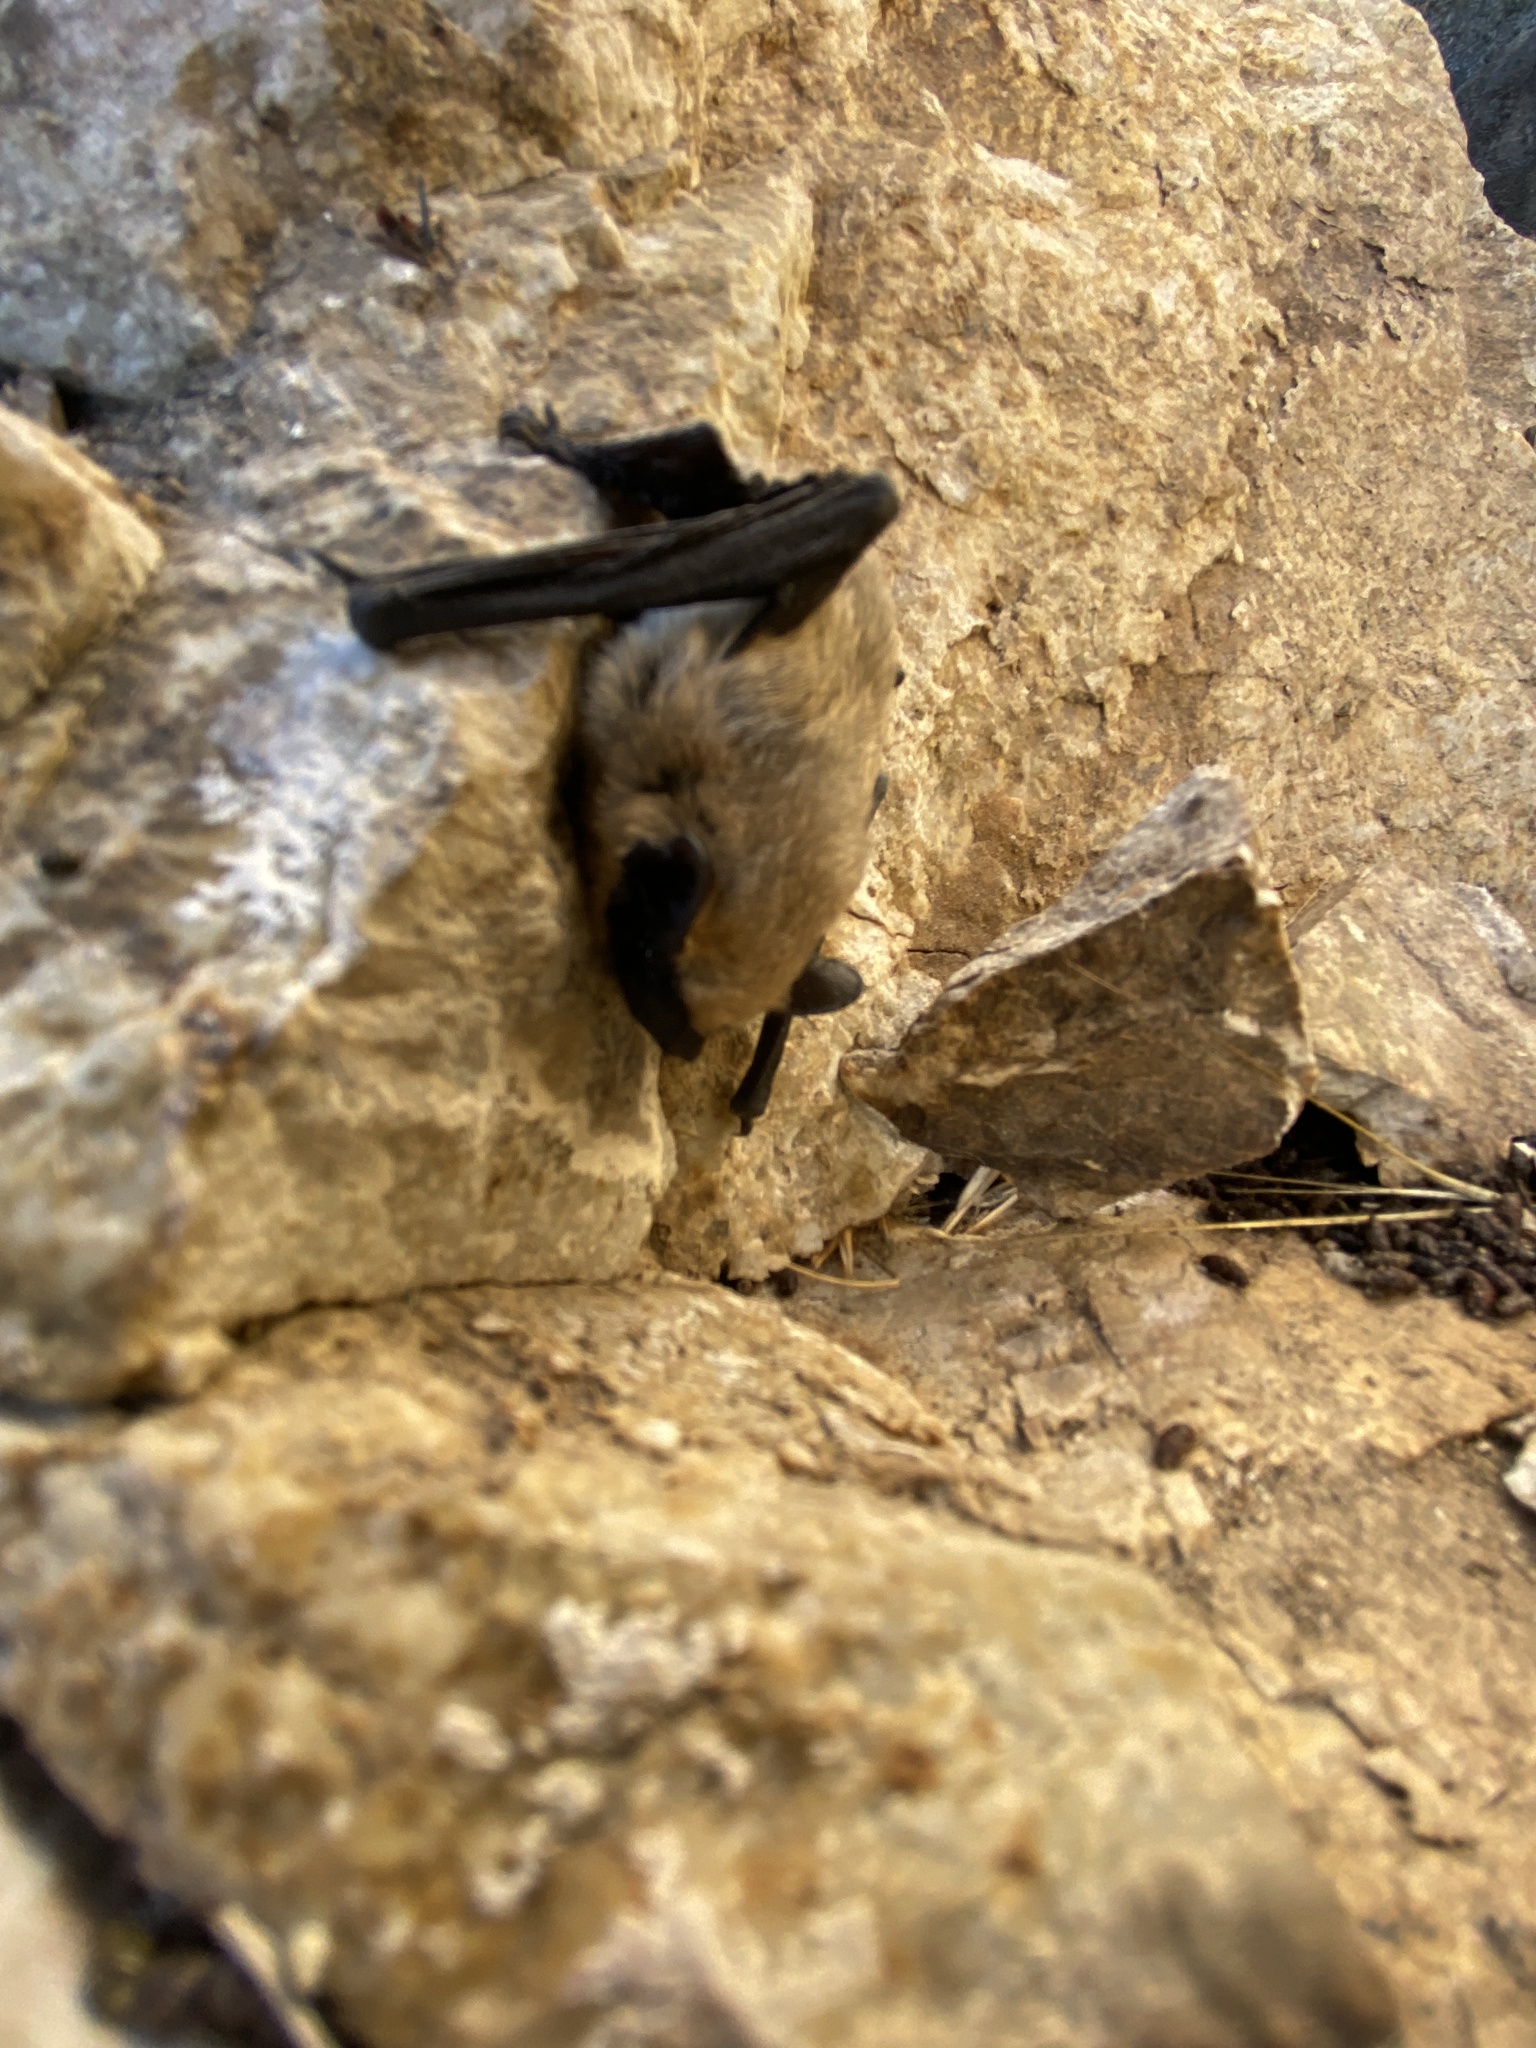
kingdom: Animalia
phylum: Chordata
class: Mammalia
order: Chiroptera
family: Vespertilionidae
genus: Parastrellus
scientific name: Parastrellus hesperus
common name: Canyon bat
